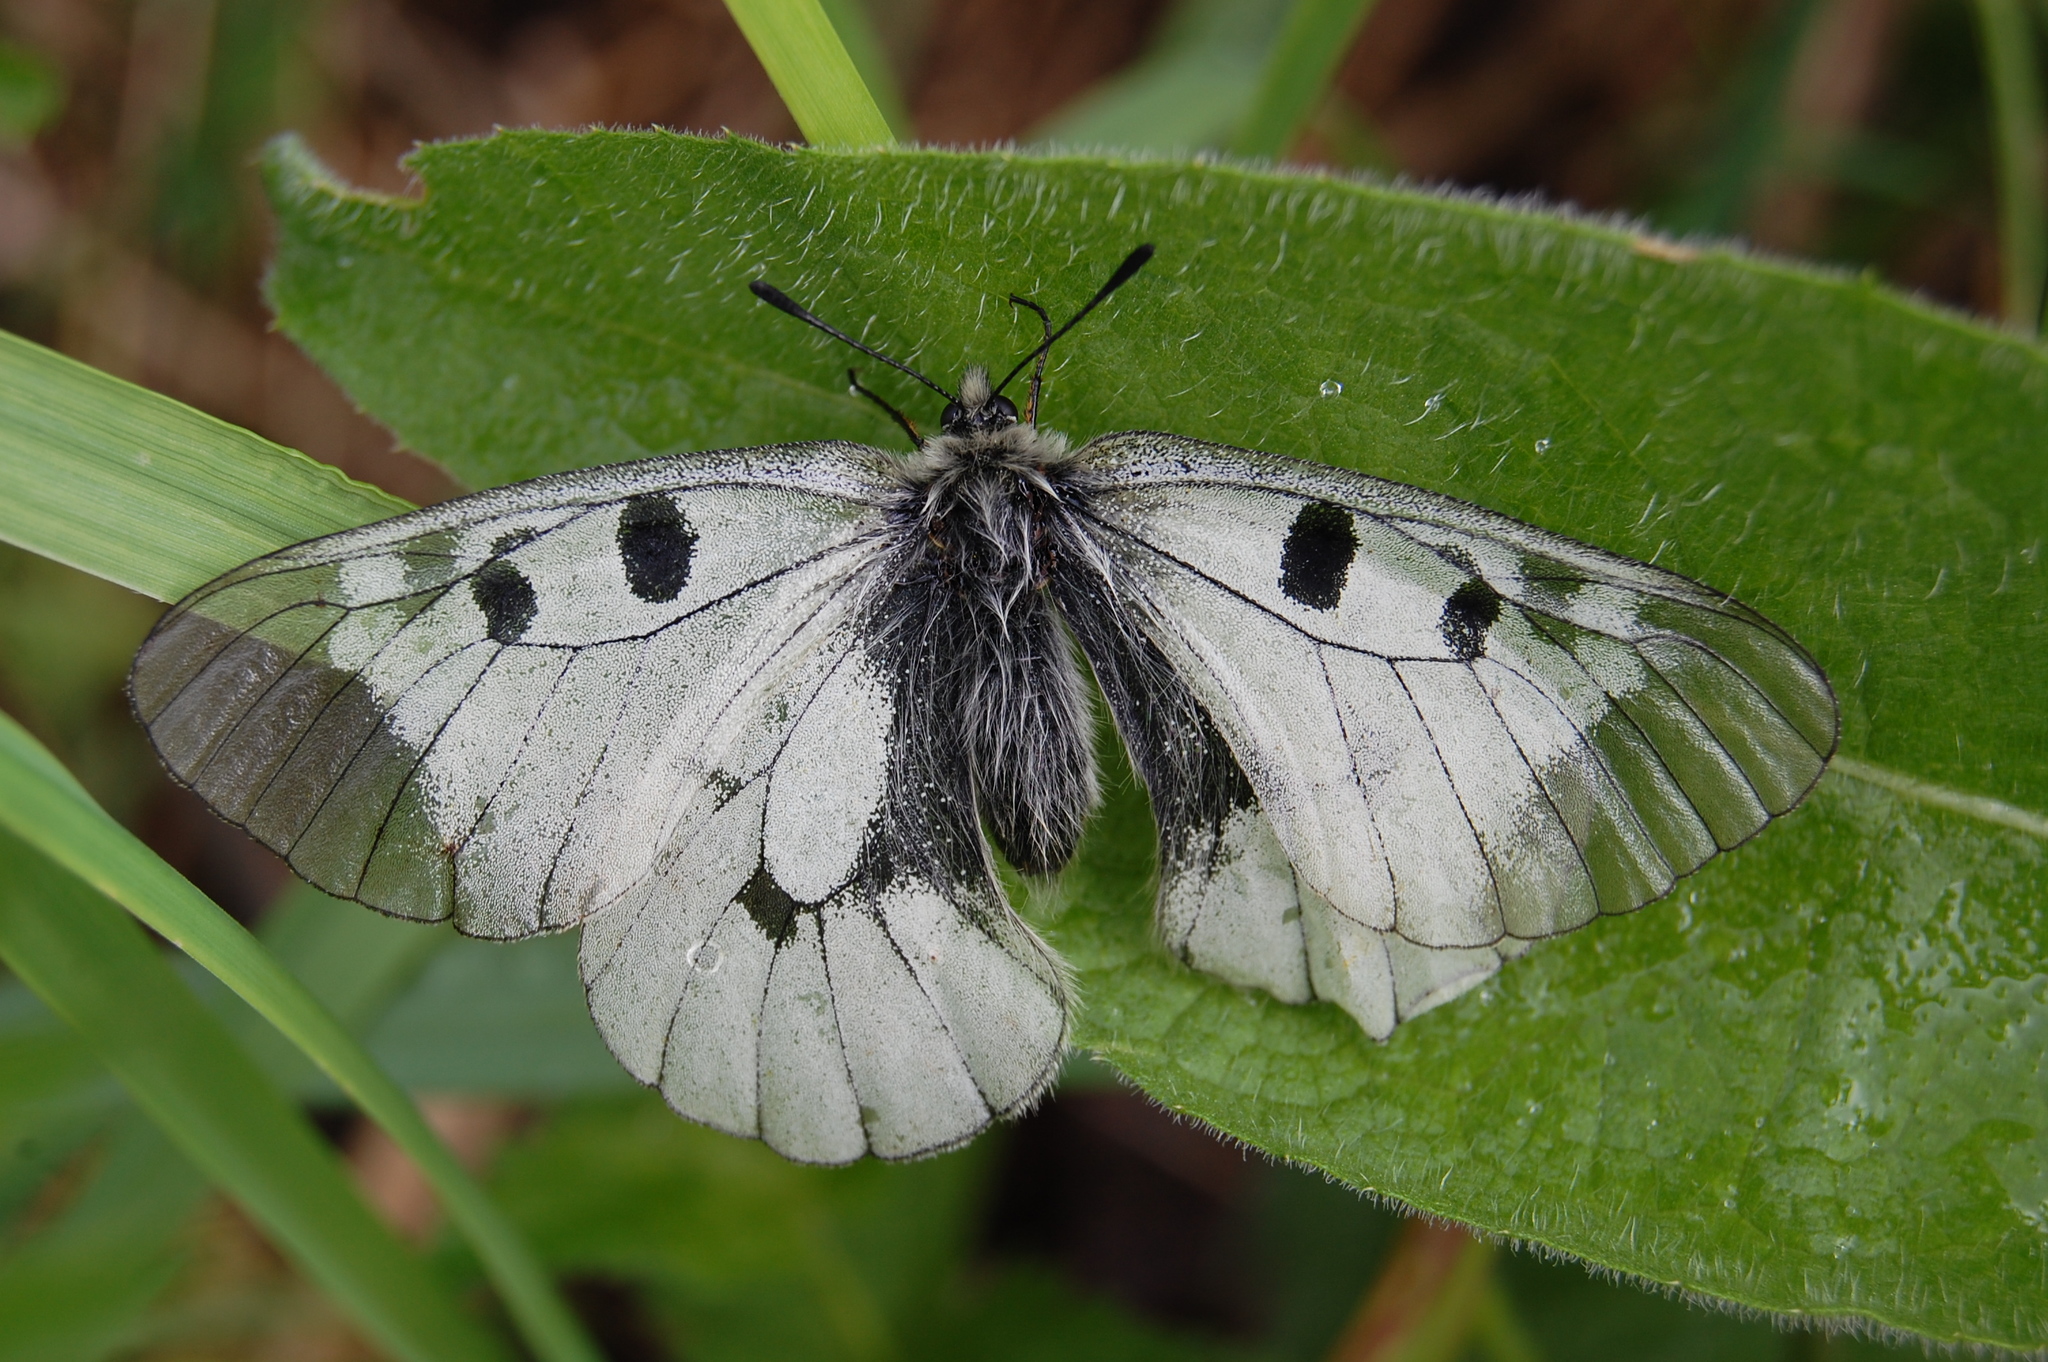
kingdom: Animalia
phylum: Arthropoda
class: Insecta
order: Lepidoptera
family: Papilionidae
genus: Parnassius
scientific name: Parnassius mnemosyne
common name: Clouded apollo
